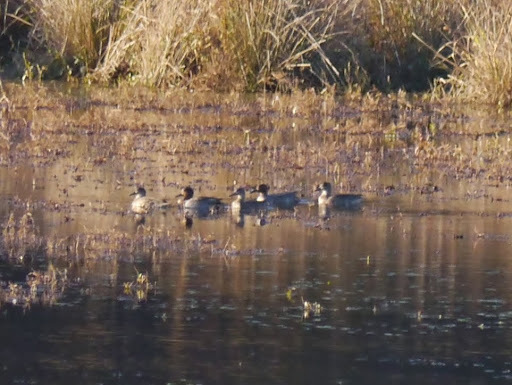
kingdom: Animalia
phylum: Chordata
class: Aves
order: Anseriformes
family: Anatidae
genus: Anas
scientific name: Anas crecca
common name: Eurasian teal
